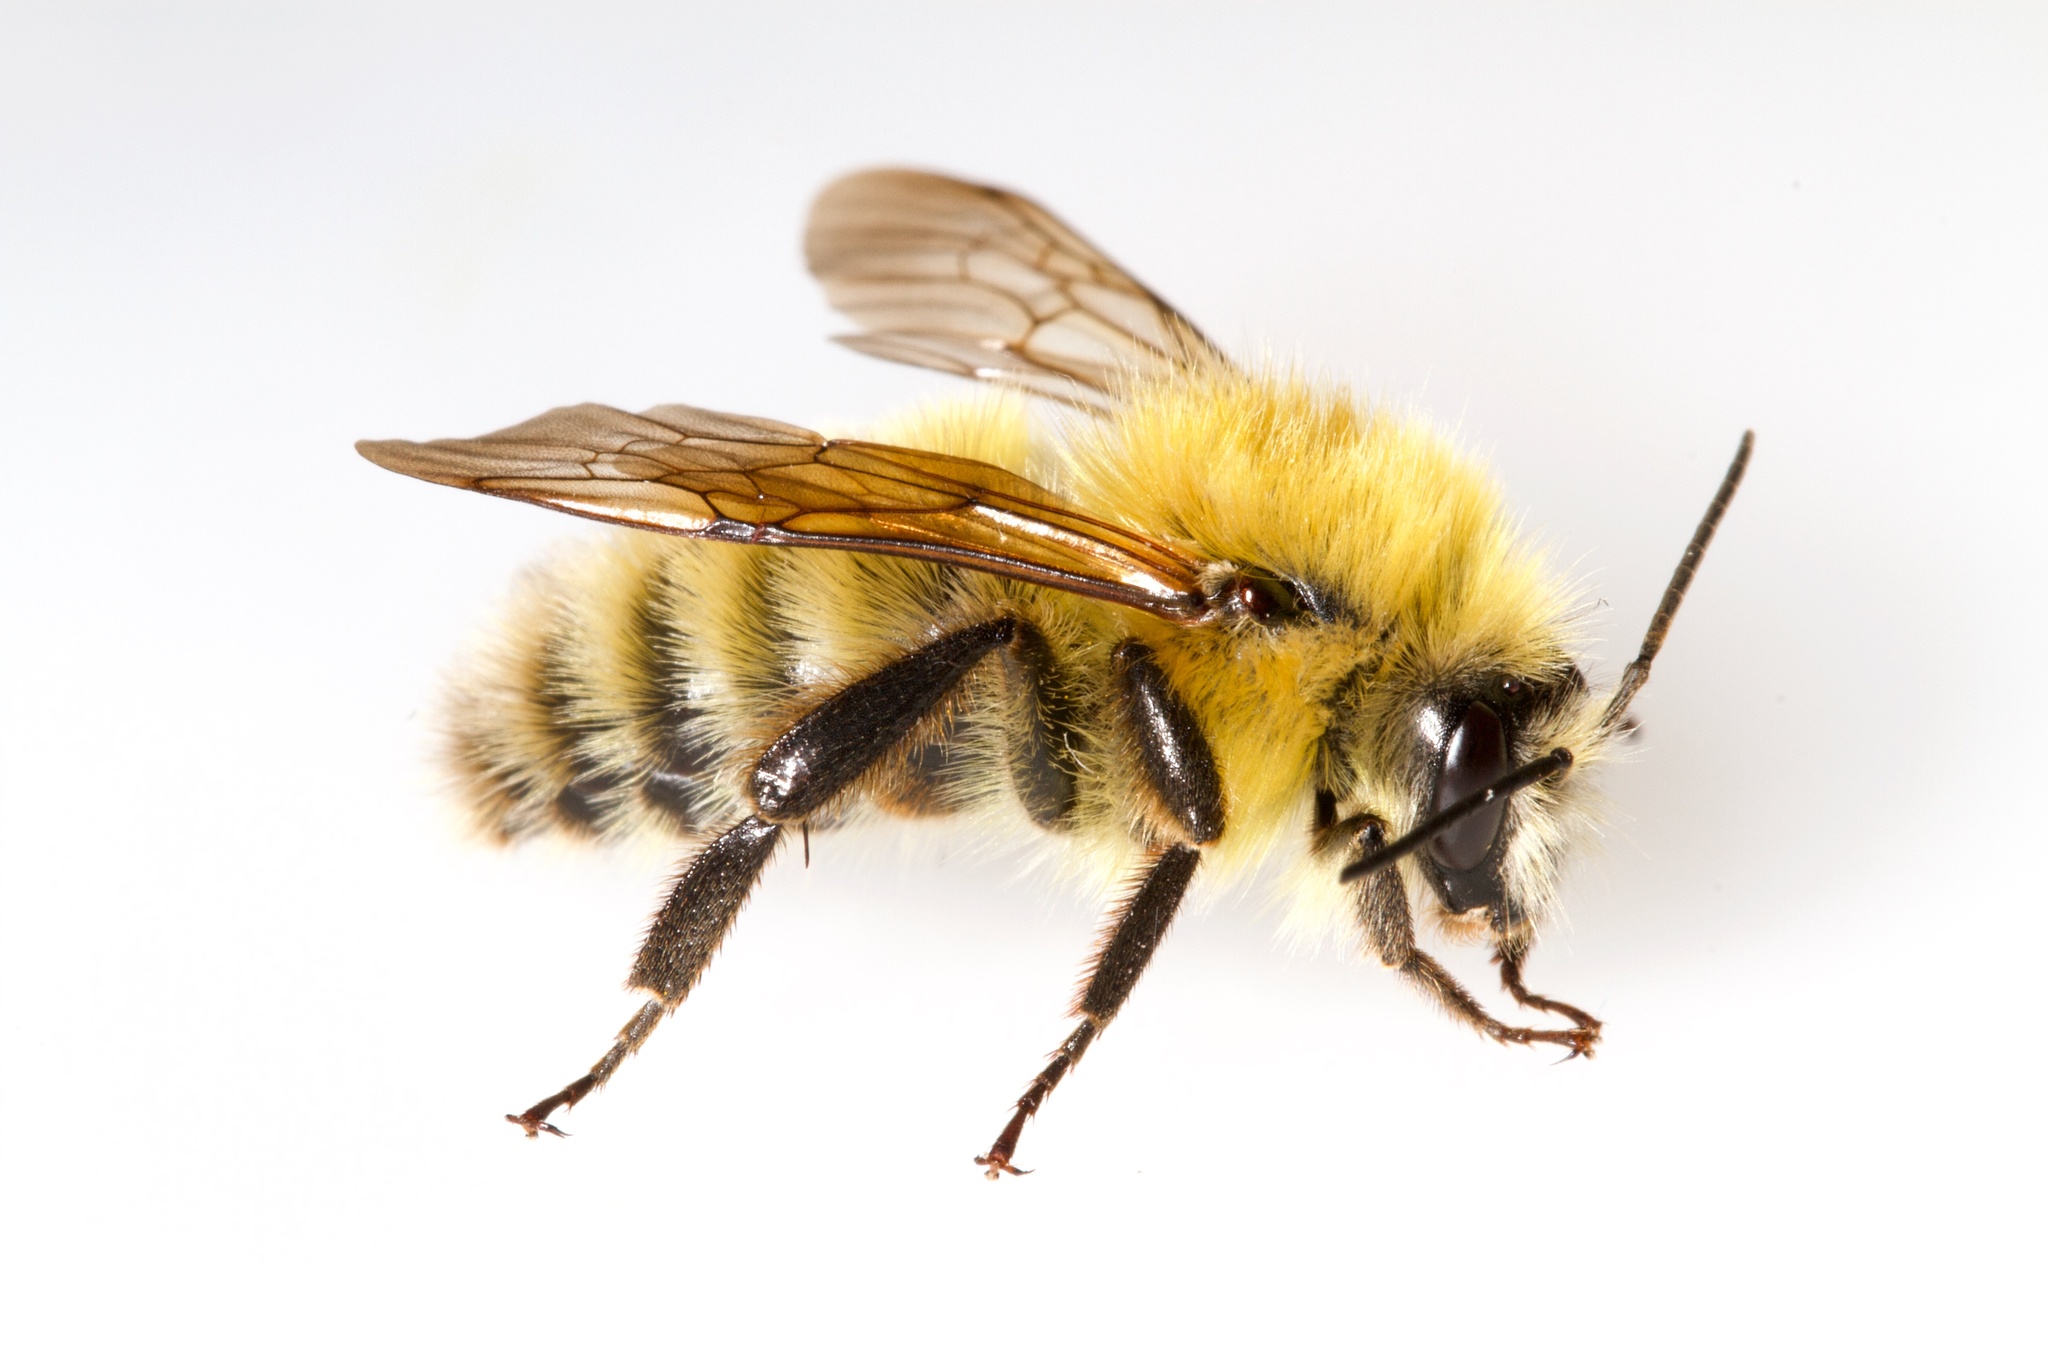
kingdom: Animalia
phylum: Arthropoda
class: Insecta
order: Hymenoptera
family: Apidae
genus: Bombus
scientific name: Bombus perplexus
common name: Confusing bumble bee
